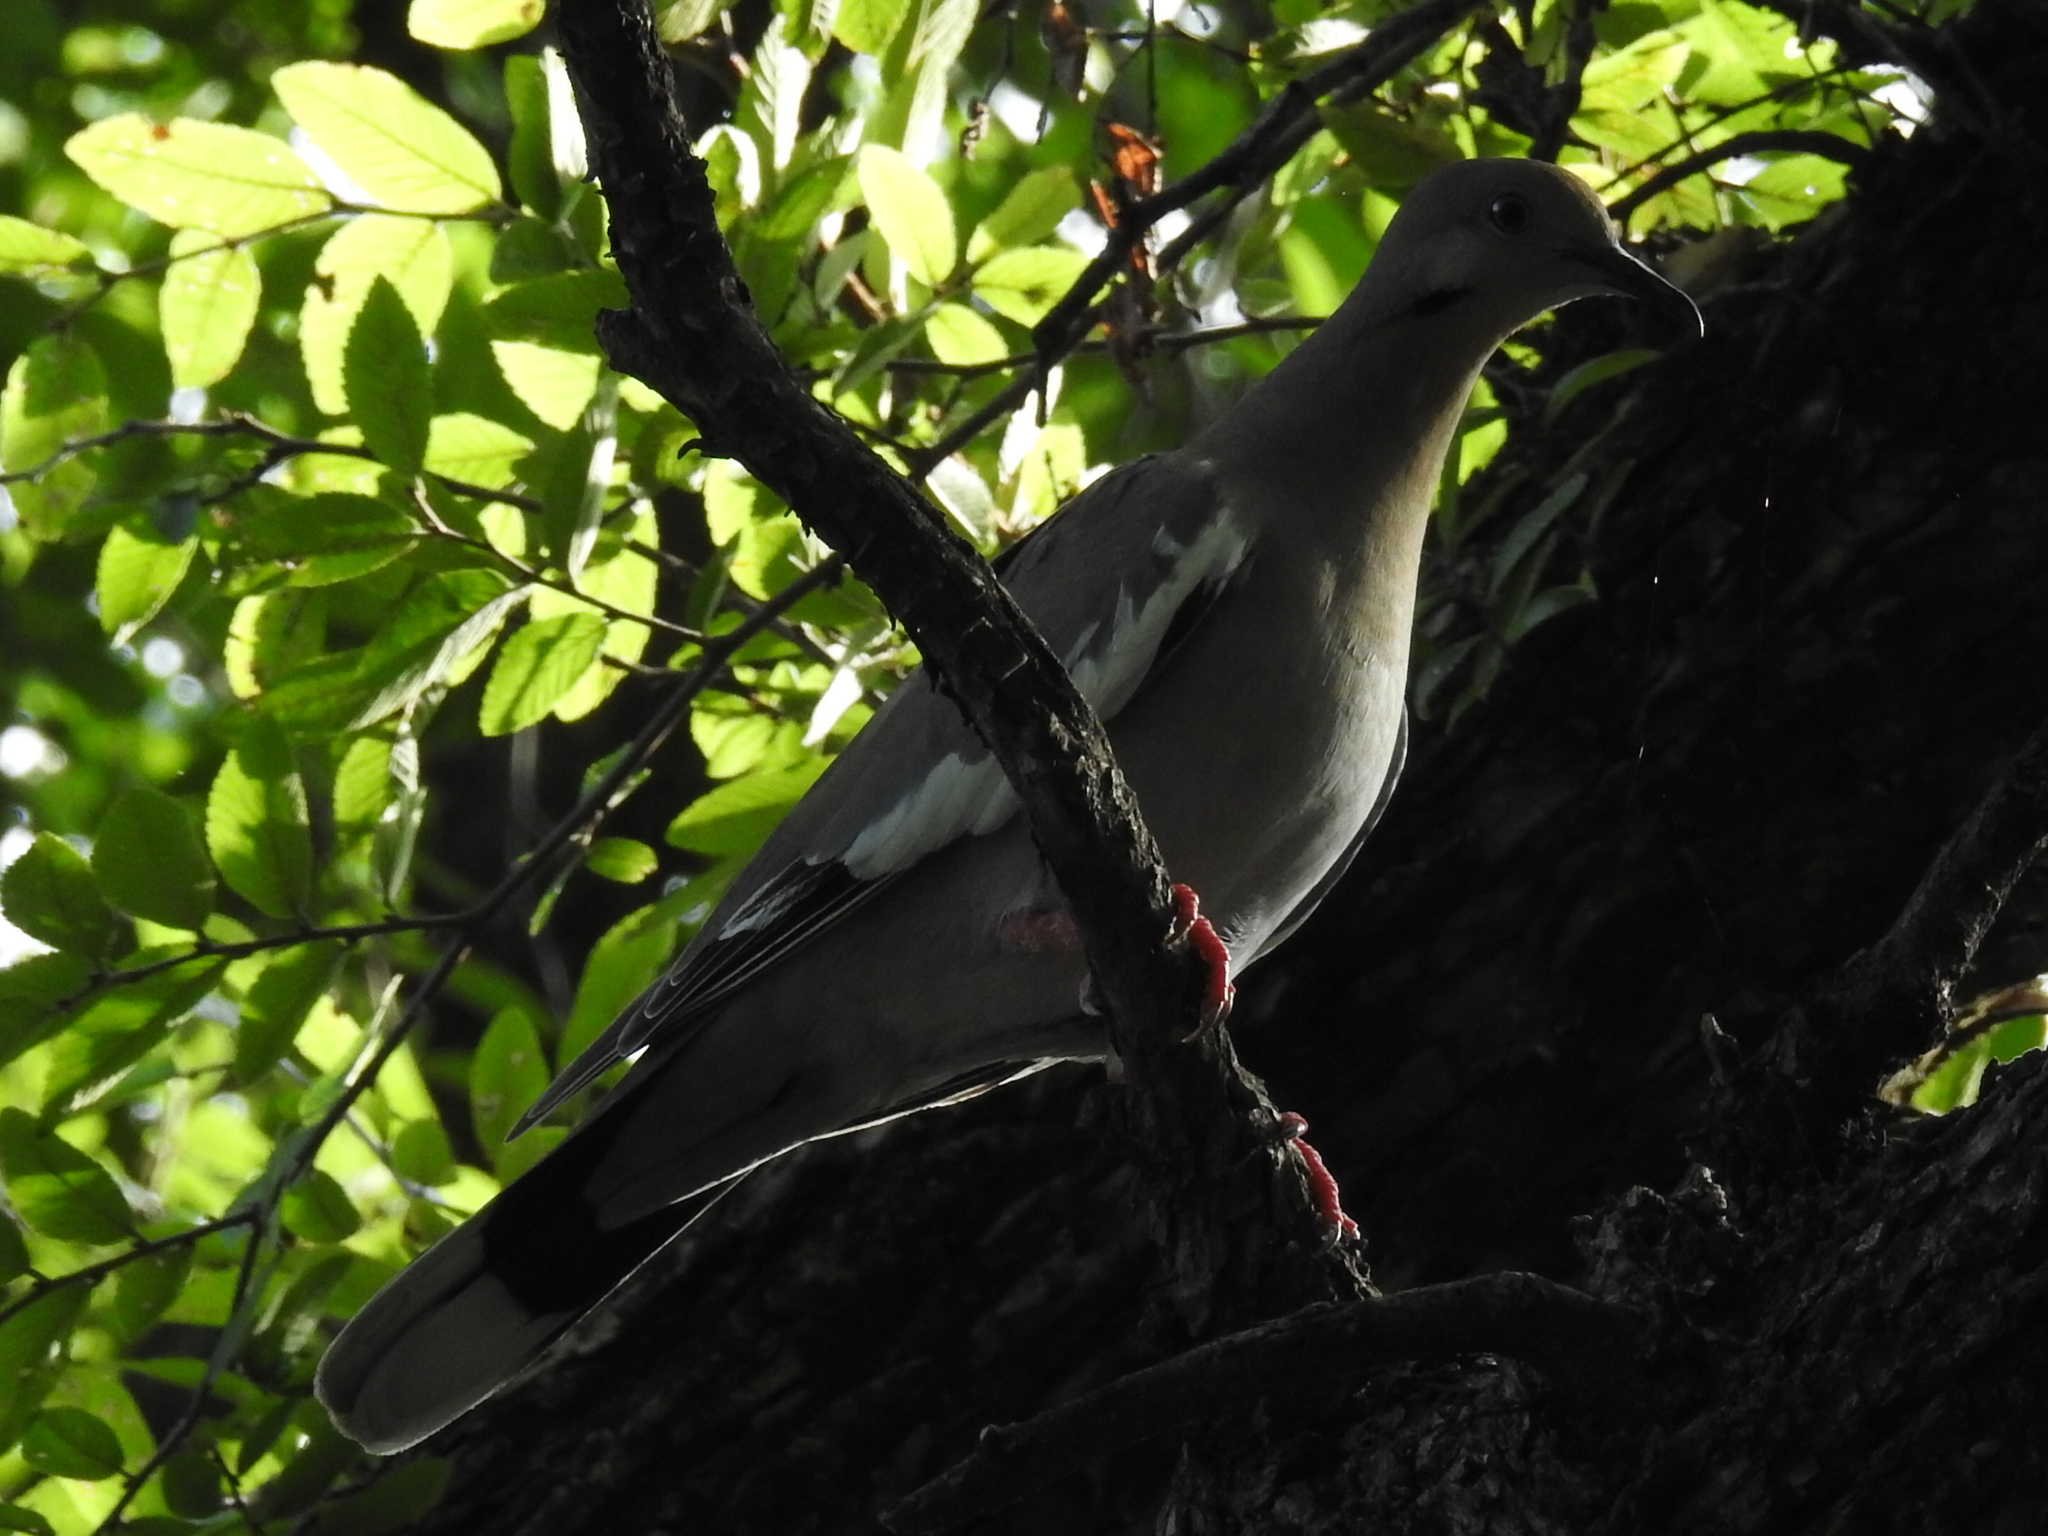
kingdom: Animalia
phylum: Chordata
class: Aves
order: Columbiformes
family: Columbidae
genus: Zenaida
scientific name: Zenaida asiatica
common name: White-winged dove
